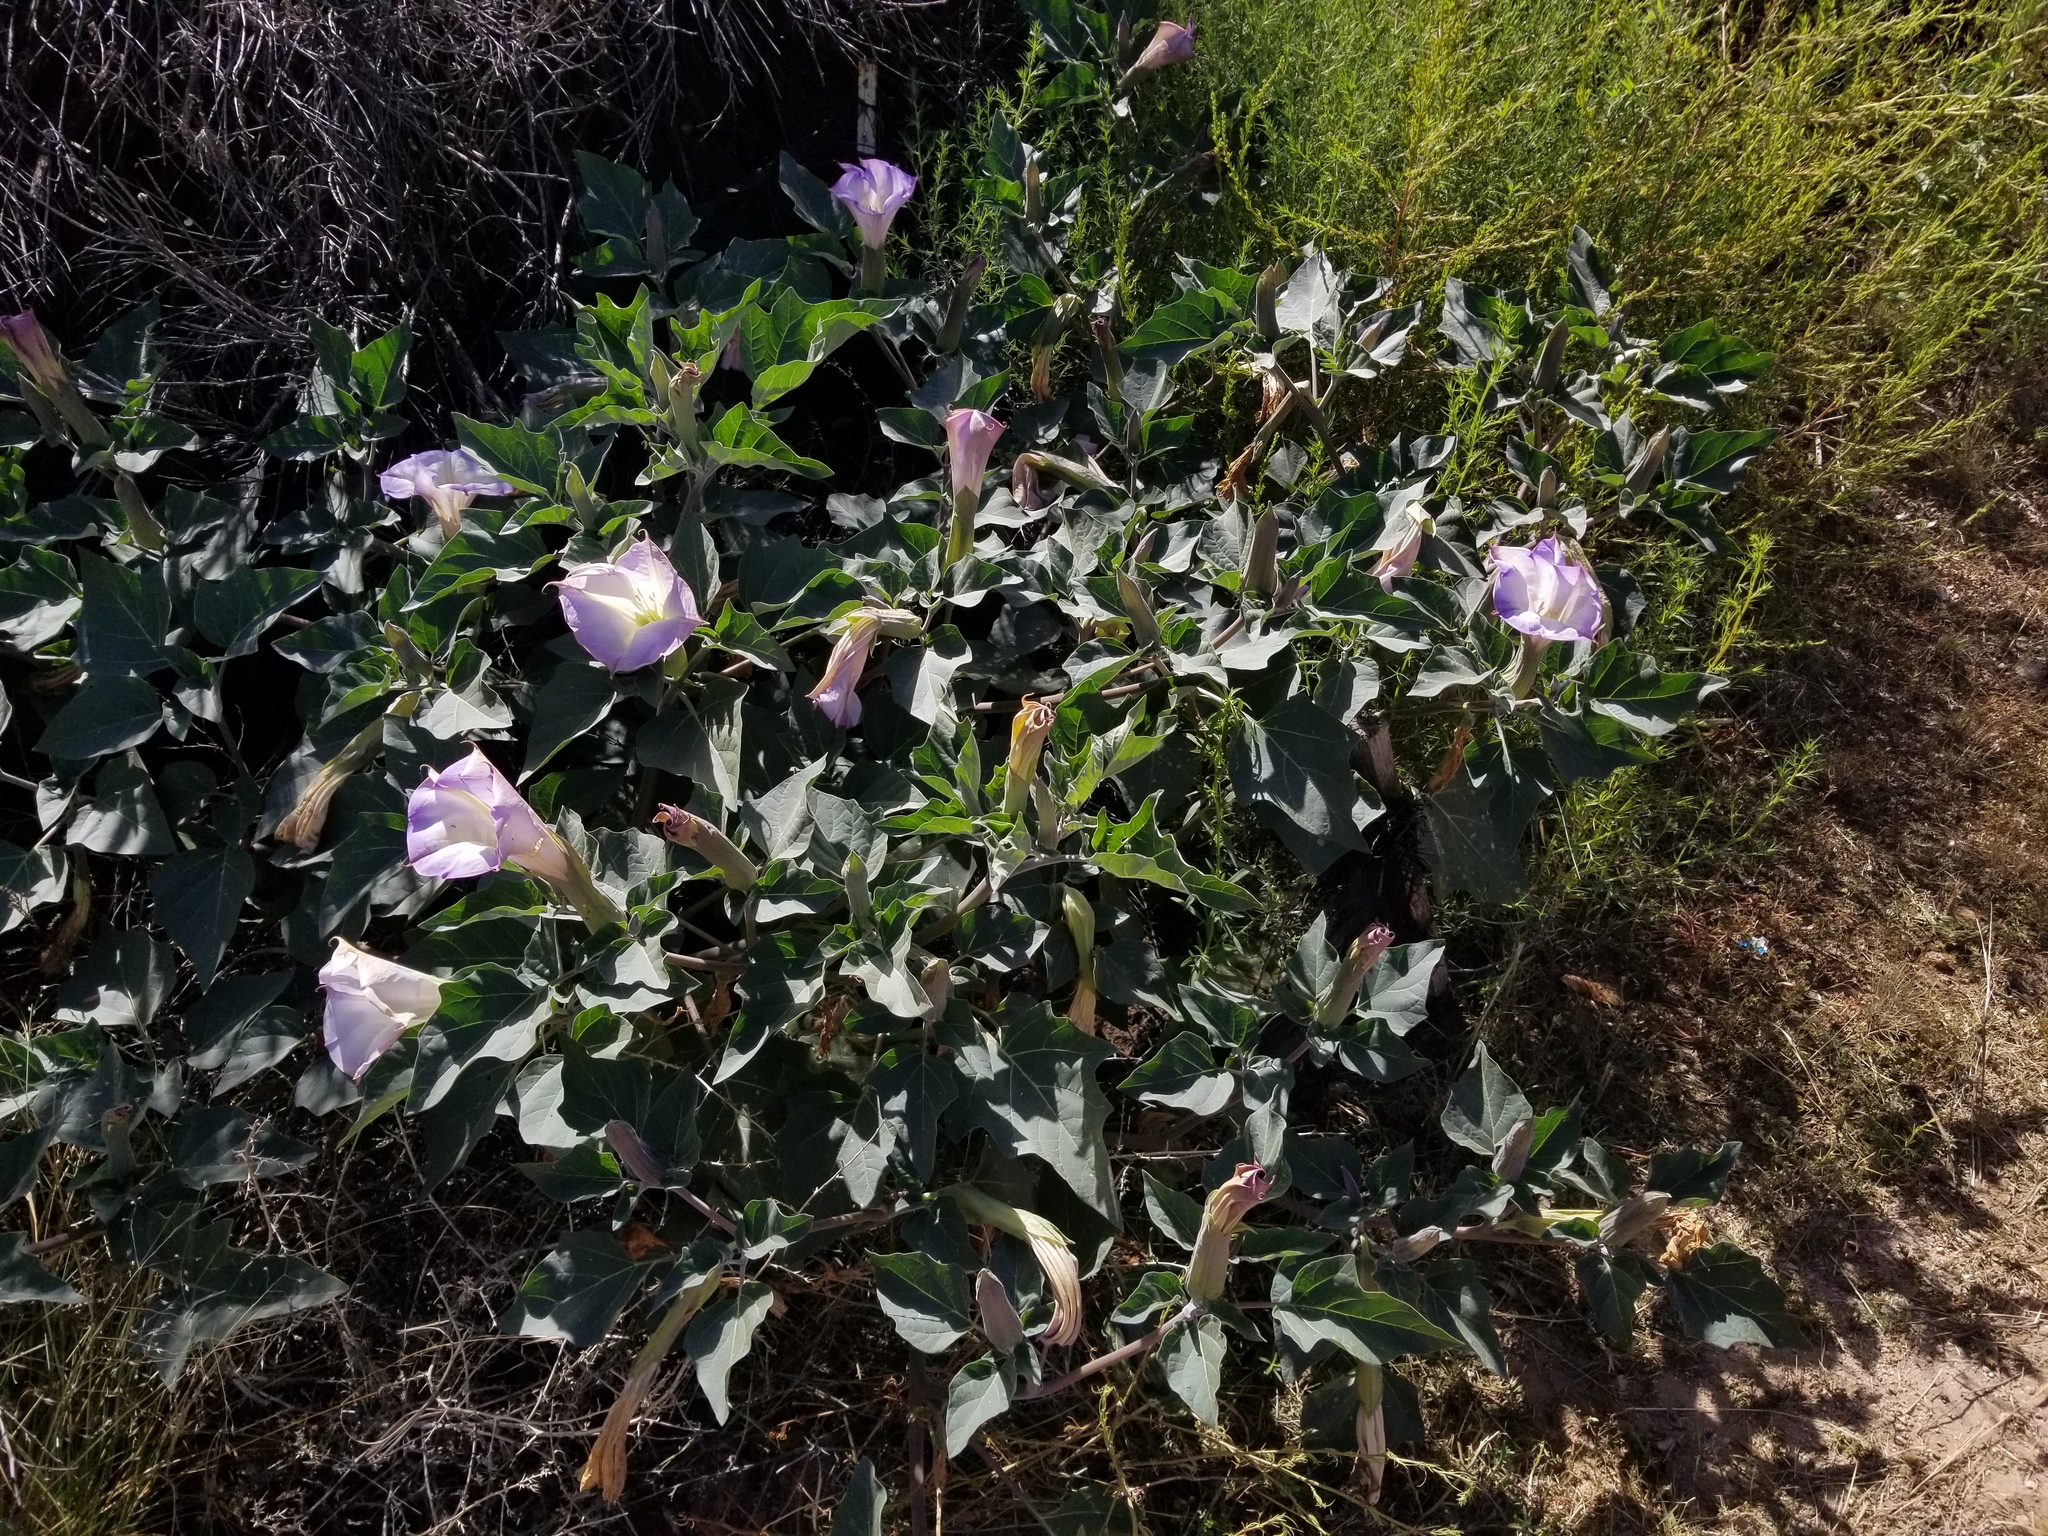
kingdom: Plantae
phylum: Tracheophyta
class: Magnoliopsida
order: Solanales
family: Solanaceae
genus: Datura
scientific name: Datura wrightii
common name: Sacred thorn-apple
